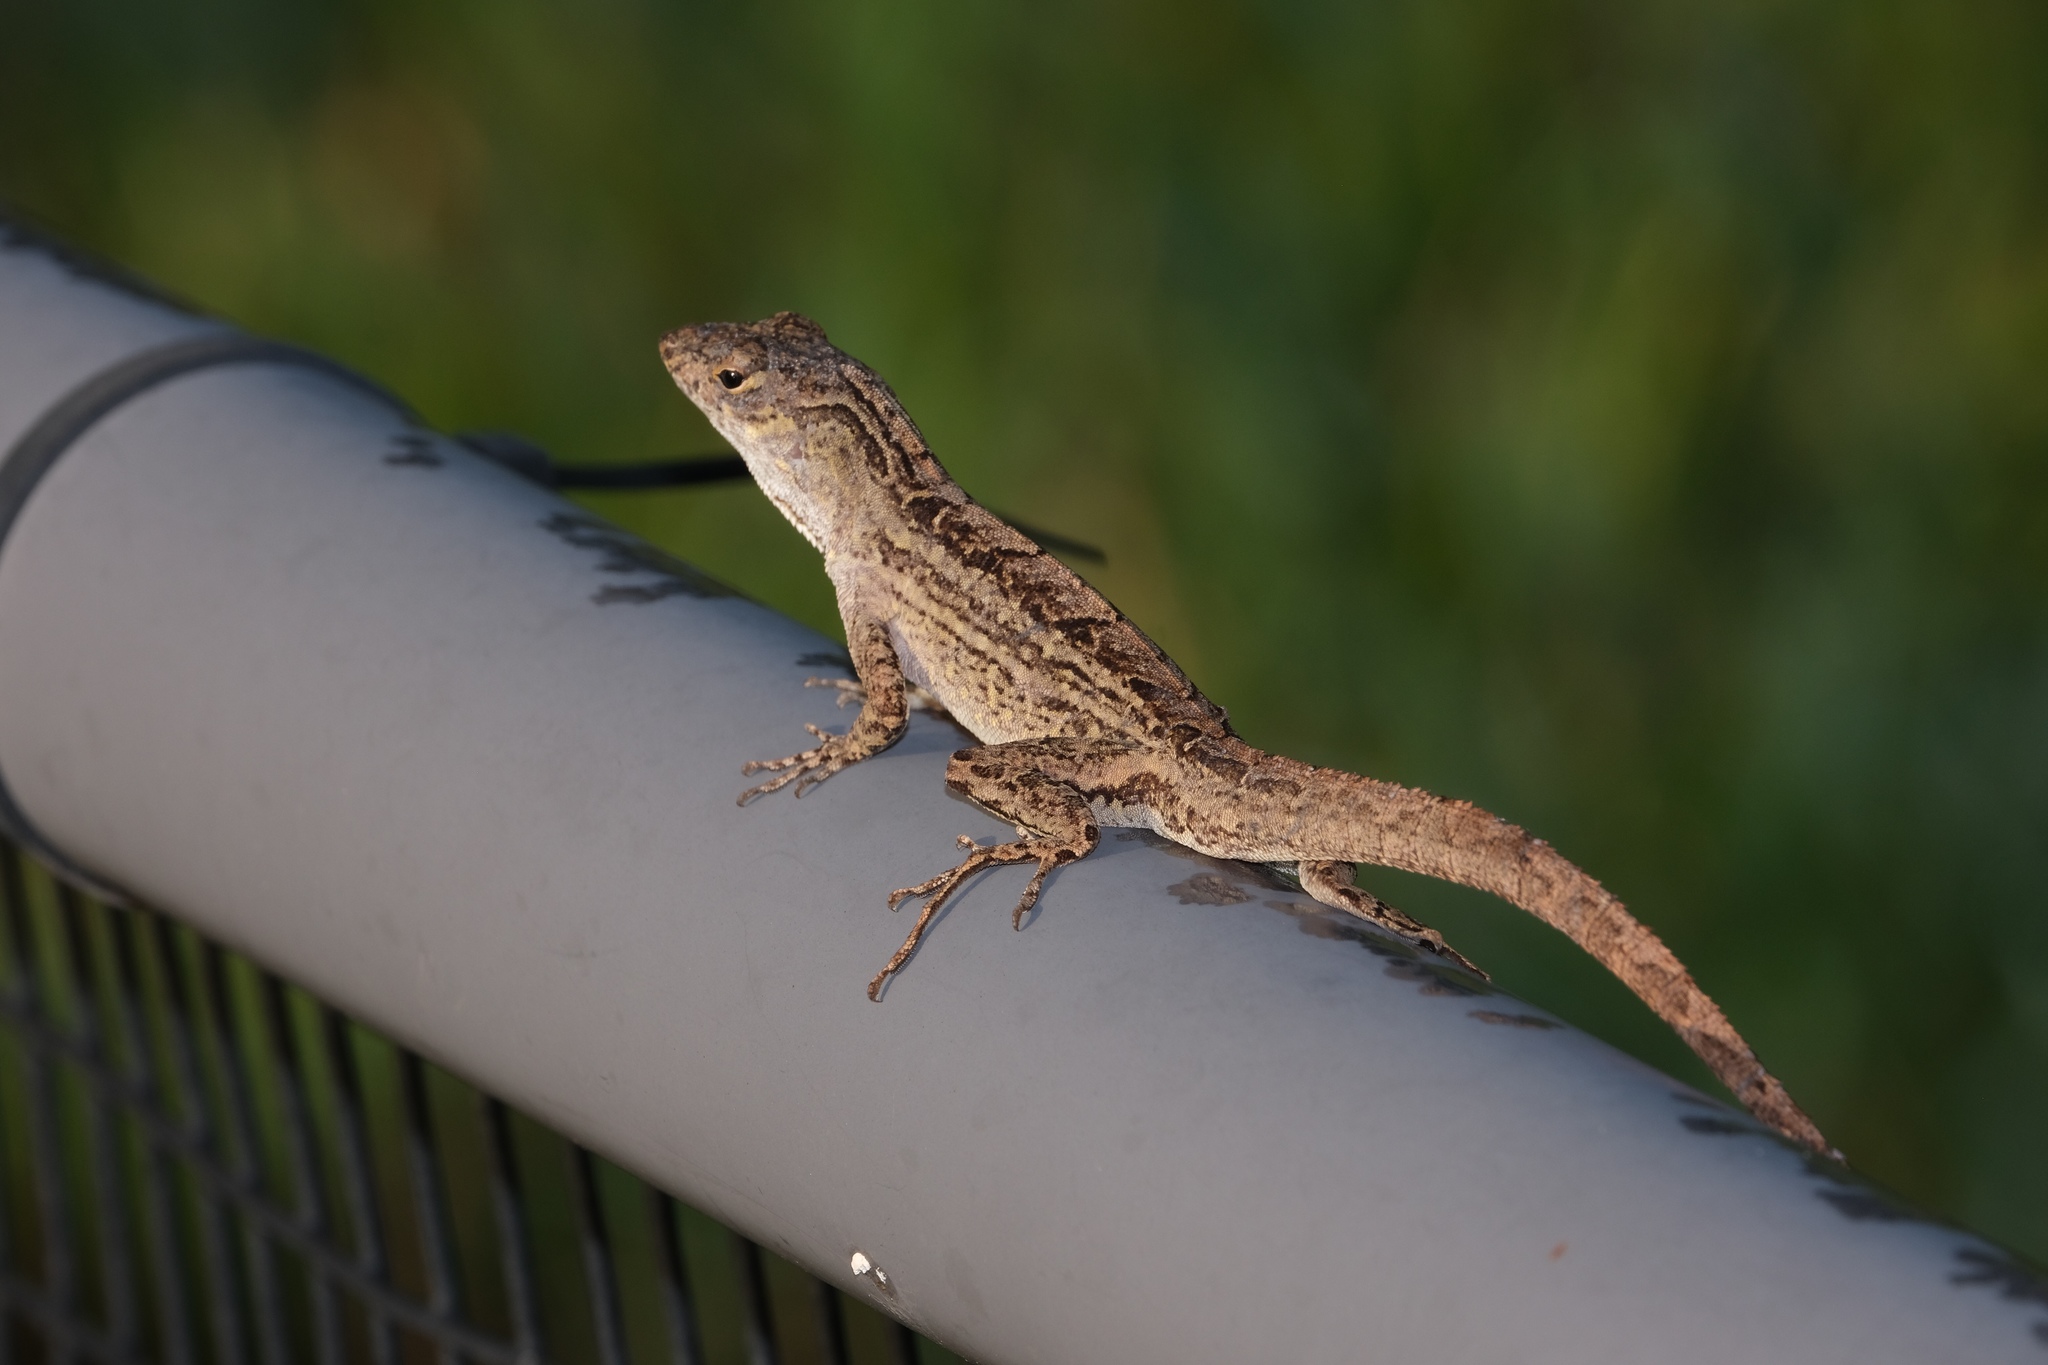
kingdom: Animalia
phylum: Chordata
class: Squamata
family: Dactyloidae
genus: Anolis
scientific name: Anolis sagrei
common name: Brown anole
